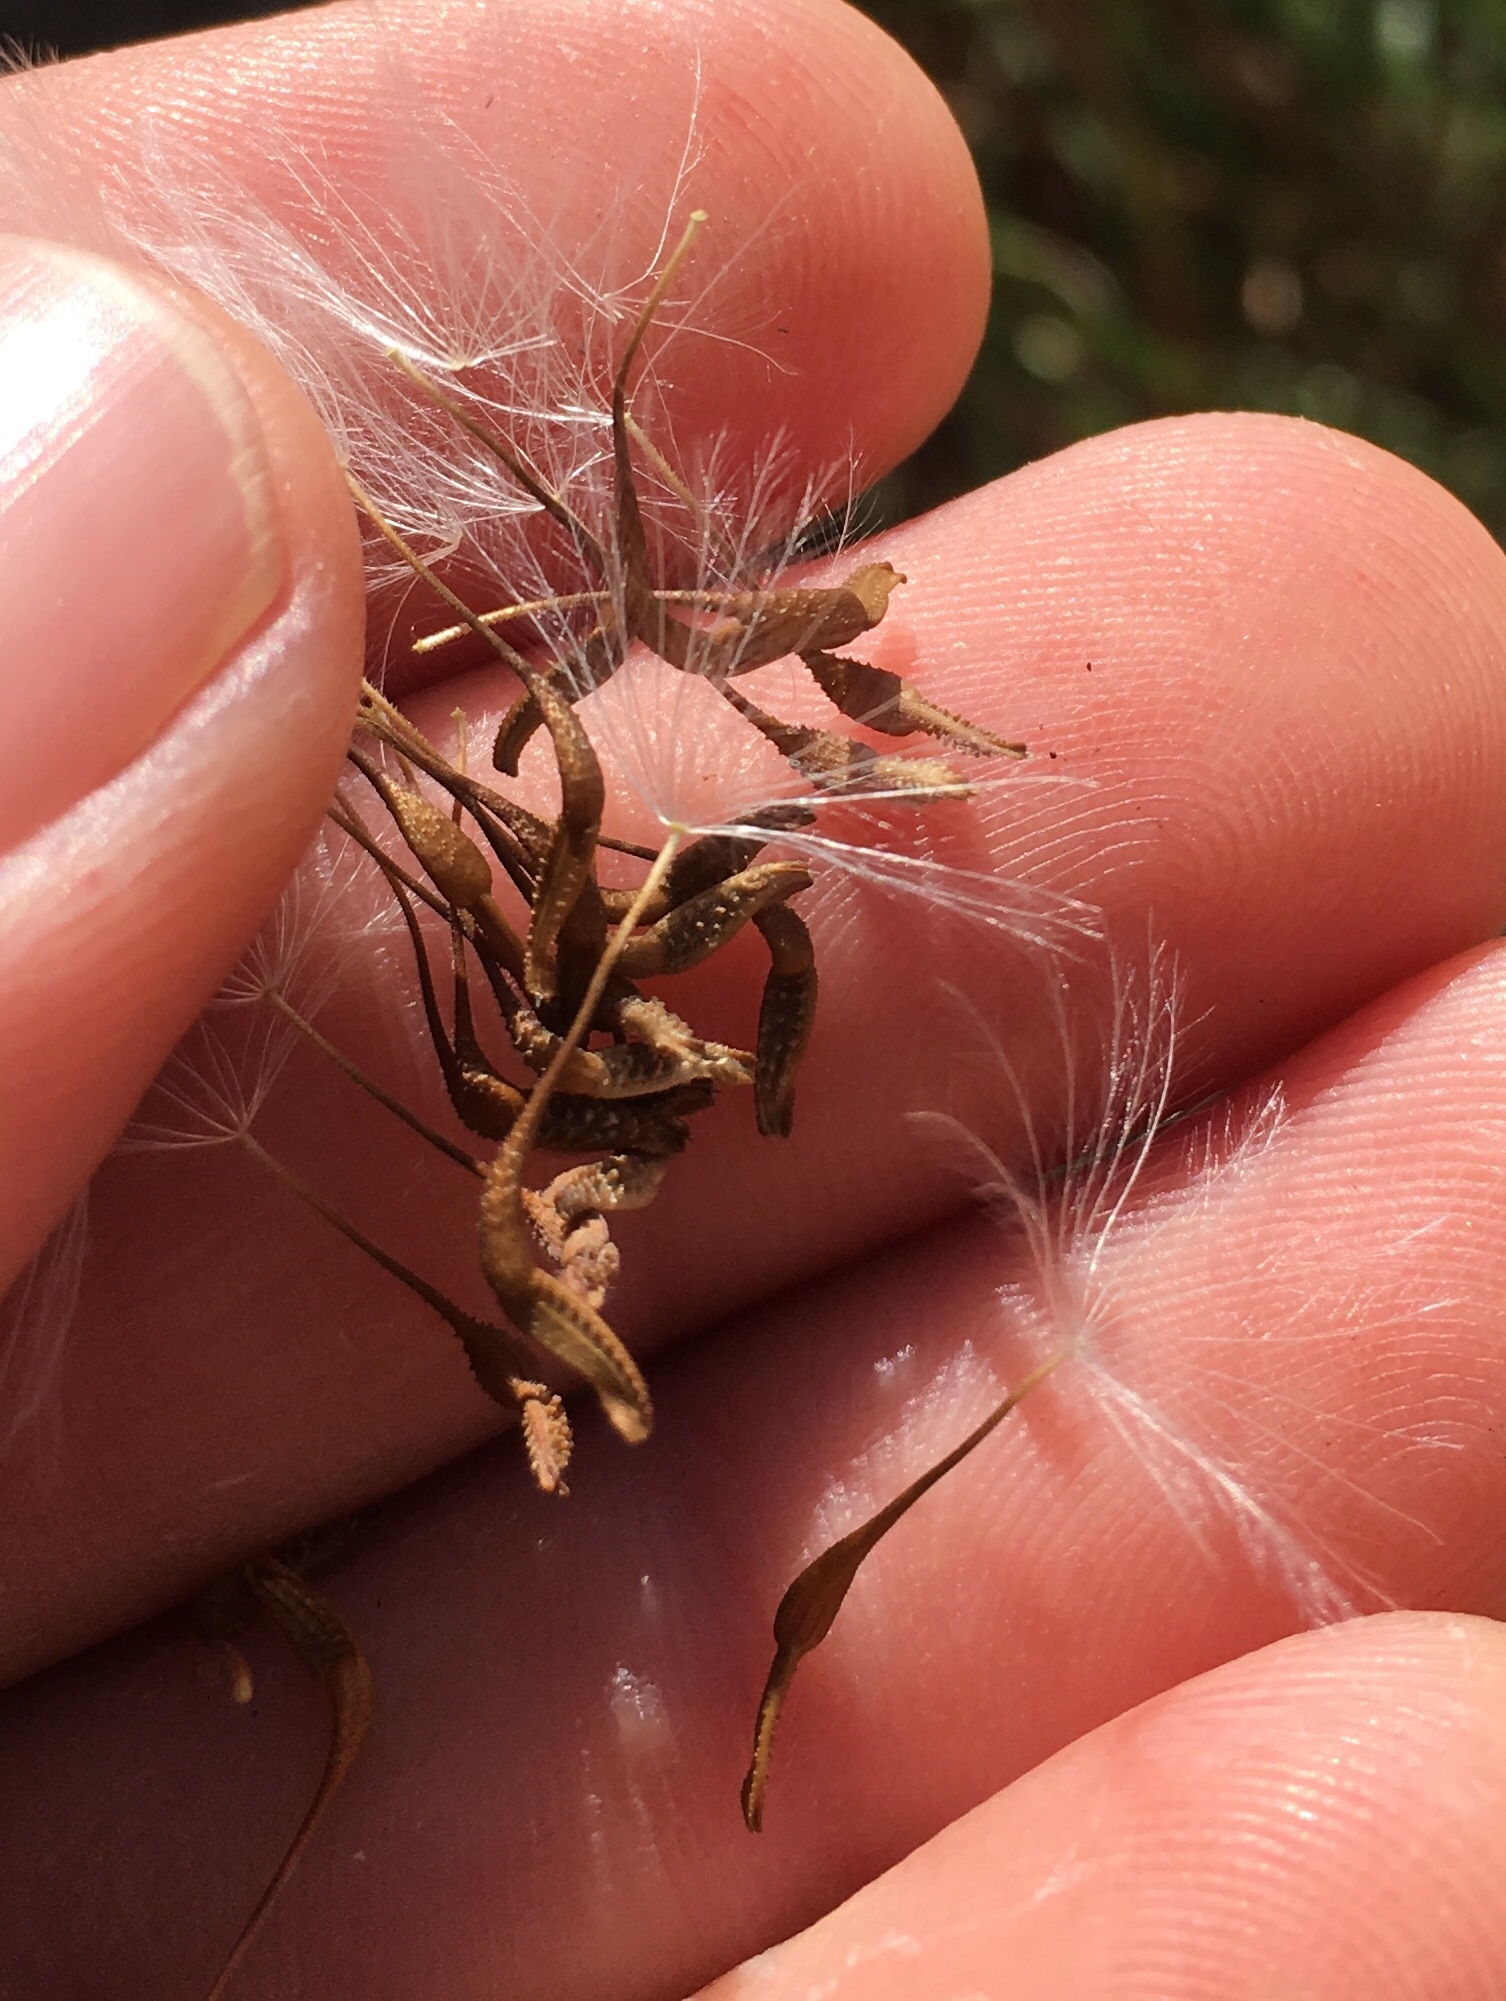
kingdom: Plantae
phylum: Tracheophyta
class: Magnoliopsida
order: Asterales
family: Asteraceae
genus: Urospermum
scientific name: Urospermum picroides
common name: False hawkbit
